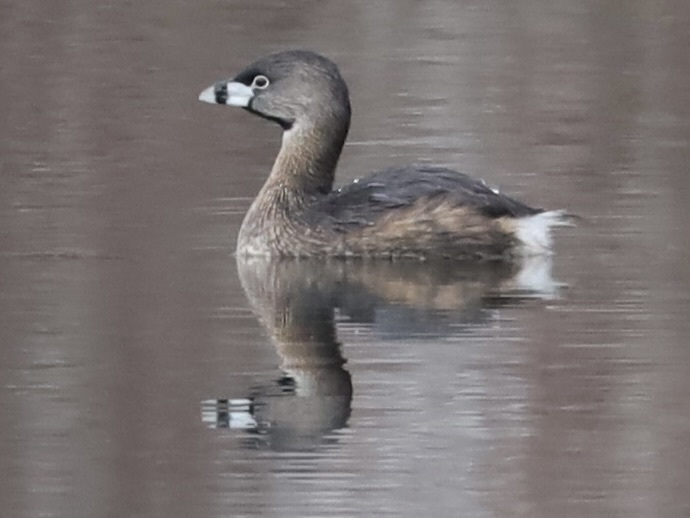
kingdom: Animalia
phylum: Chordata
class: Aves
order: Podicipediformes
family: Podicipedidae
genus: Podilymbus
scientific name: Podilymbus podiceps
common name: Pied-billed grebe
